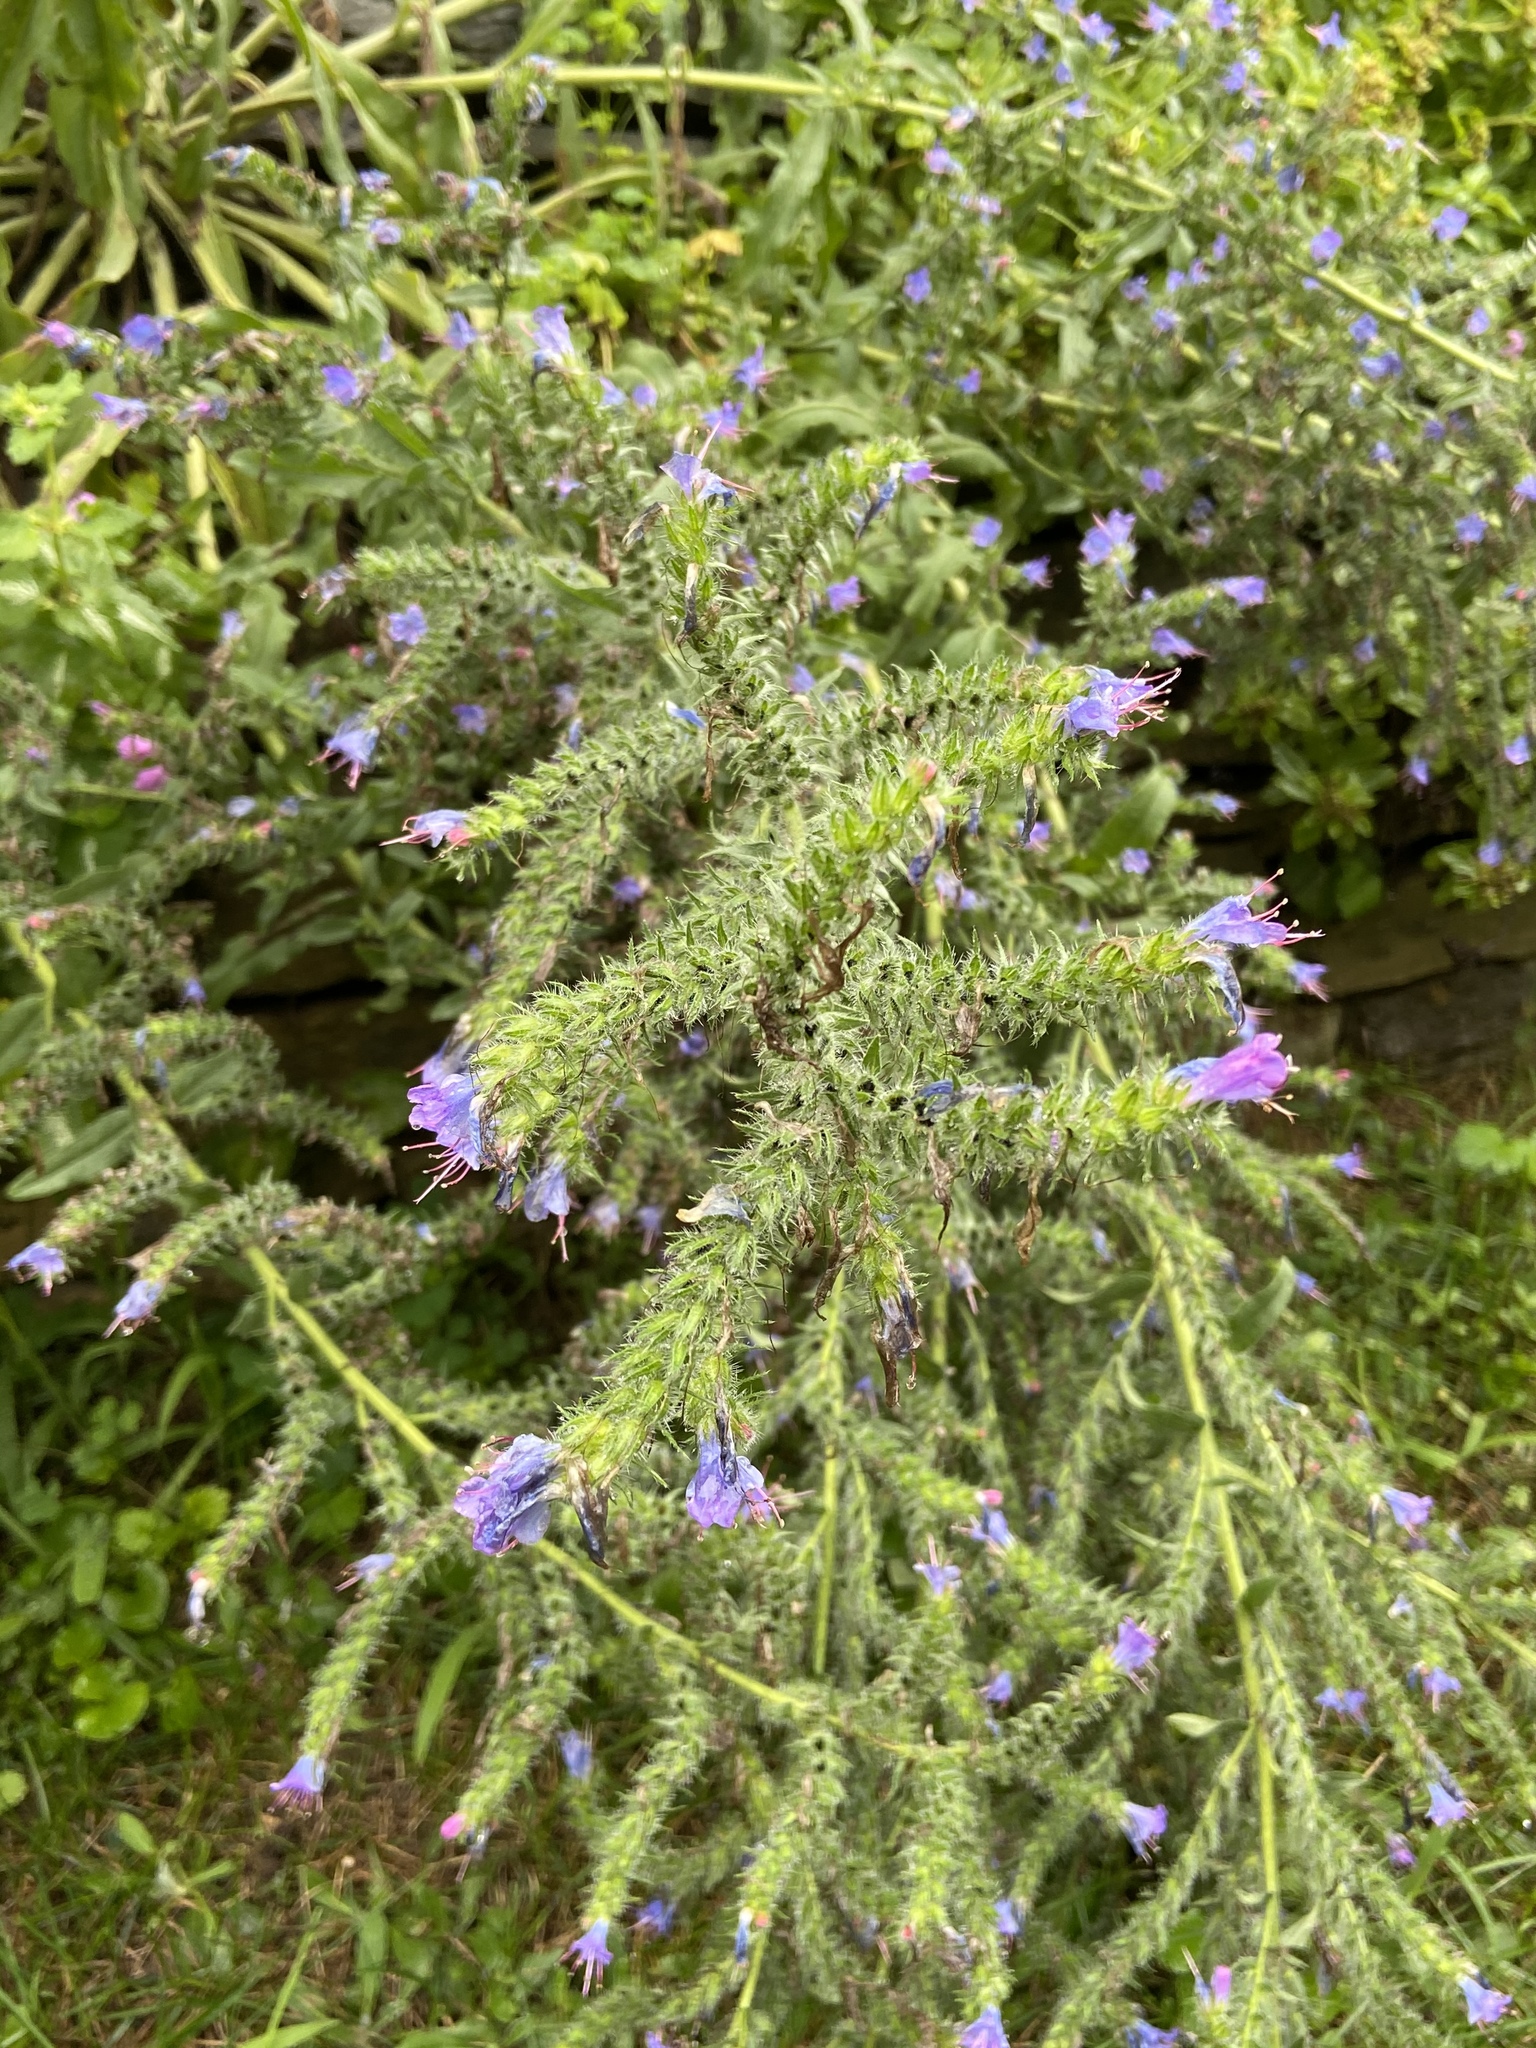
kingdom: Plantae
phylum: Tracheophyta
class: Magnoliopsida
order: Boraginales
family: Boraginaceae
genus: Echium
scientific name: Echium vulgare
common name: Common viper's bugloss
